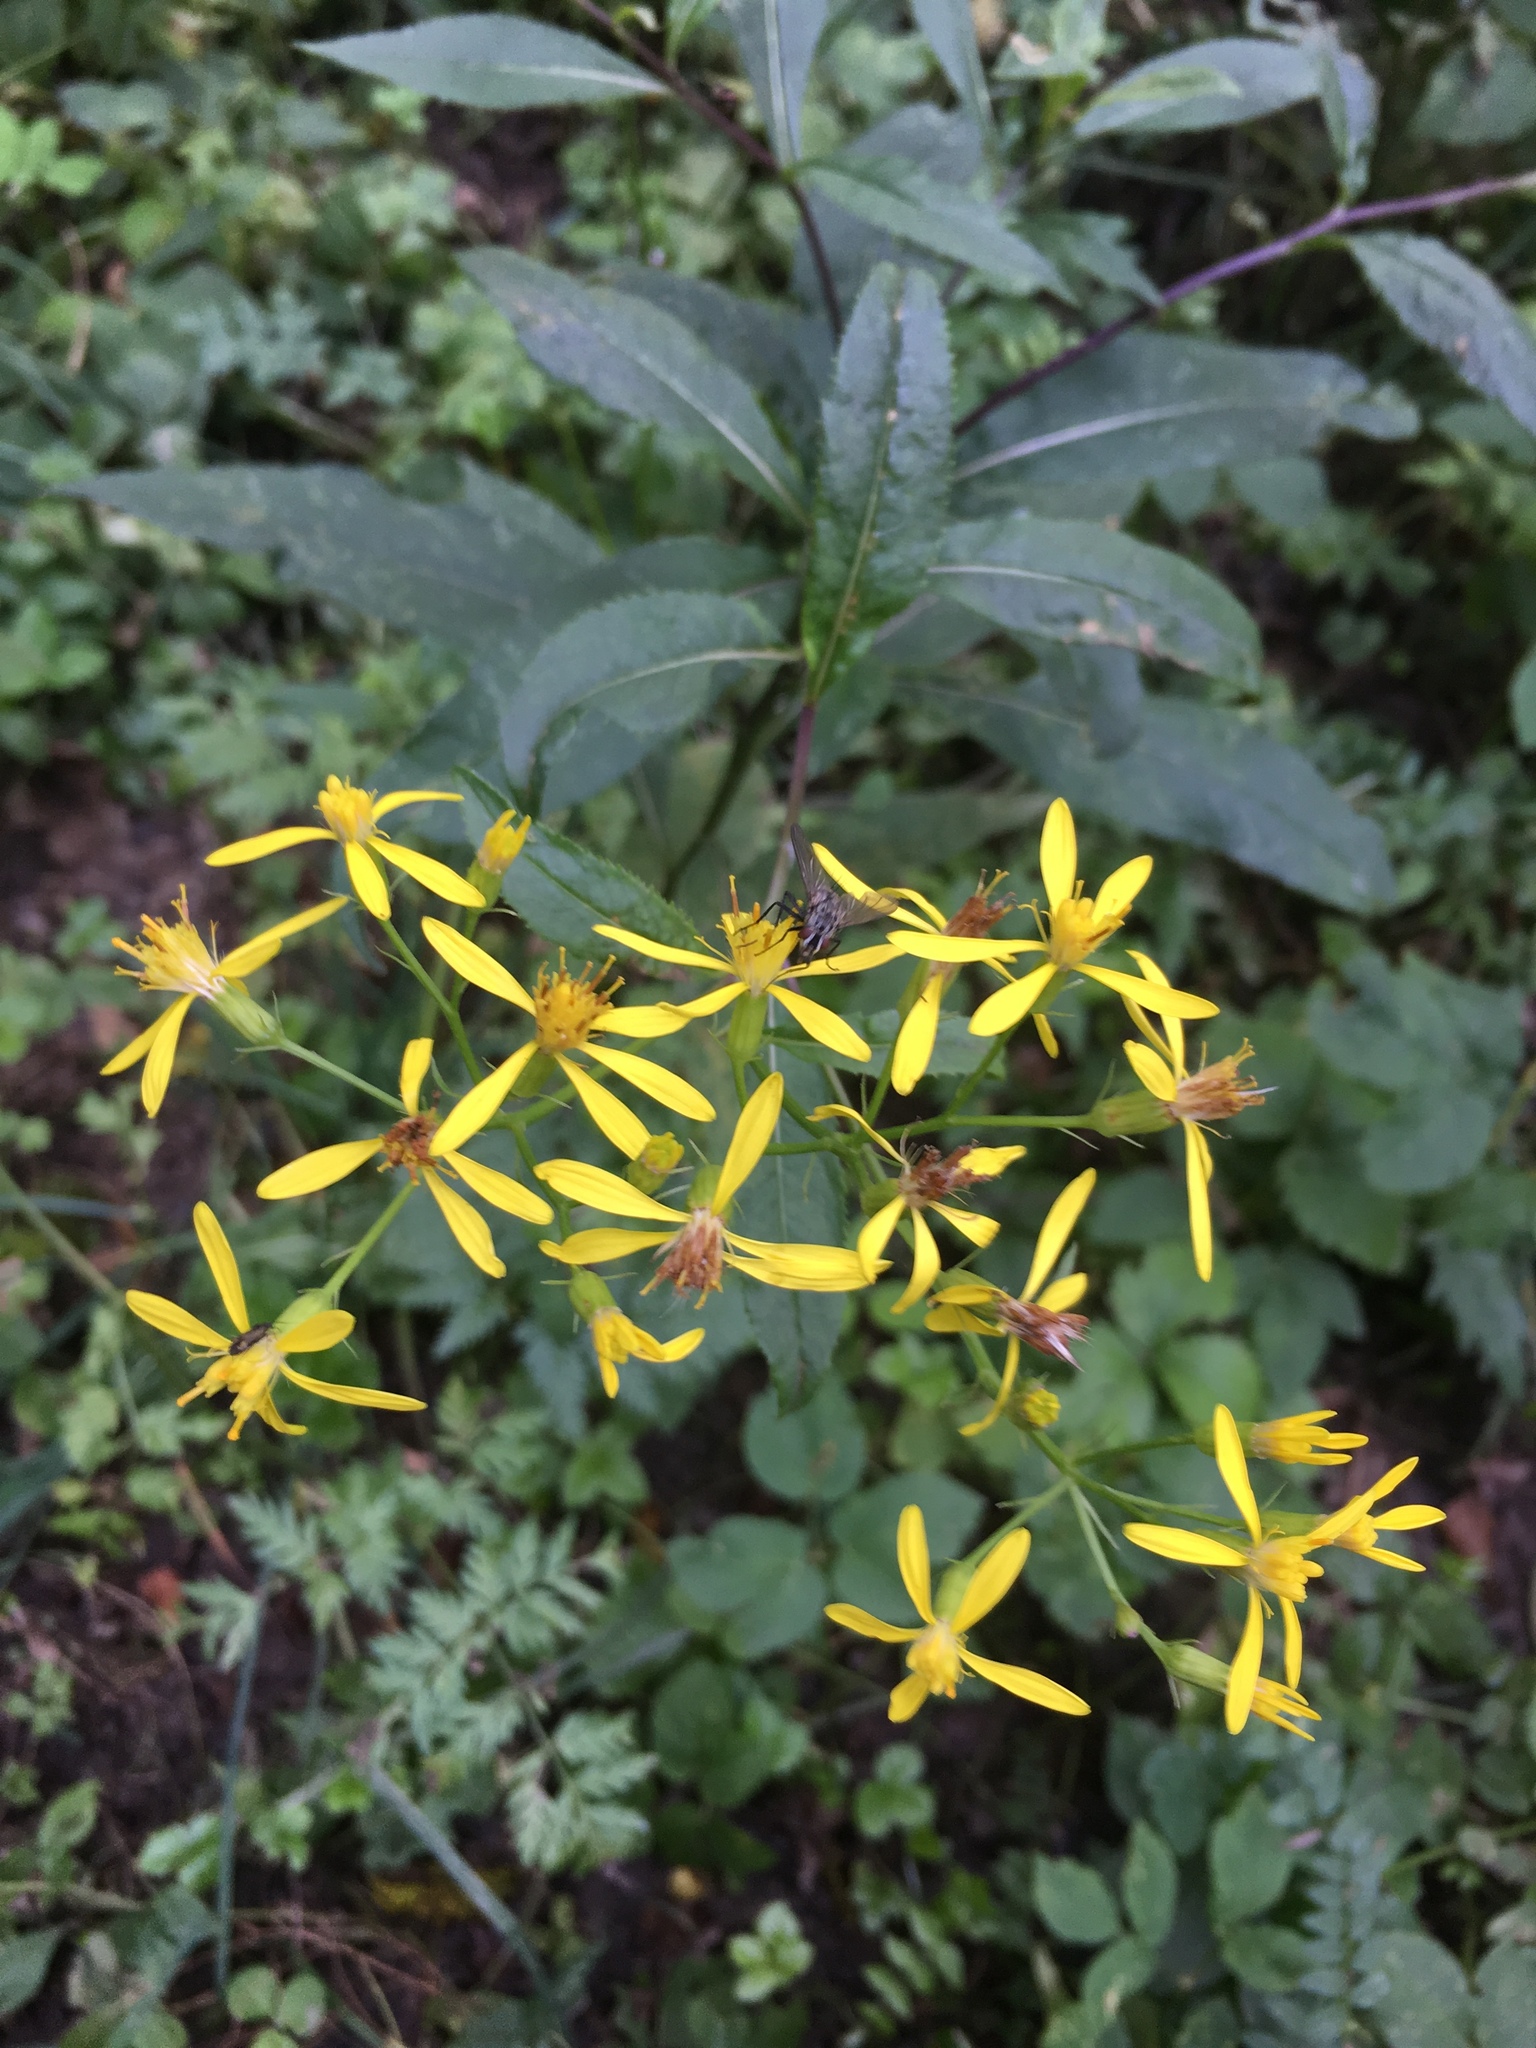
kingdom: Plantae
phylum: Tracheophyta
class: Magnoliopsida
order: Asterales
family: Asteraceae
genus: Senecio
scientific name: Senecio ovatus
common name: Wood ragwort
